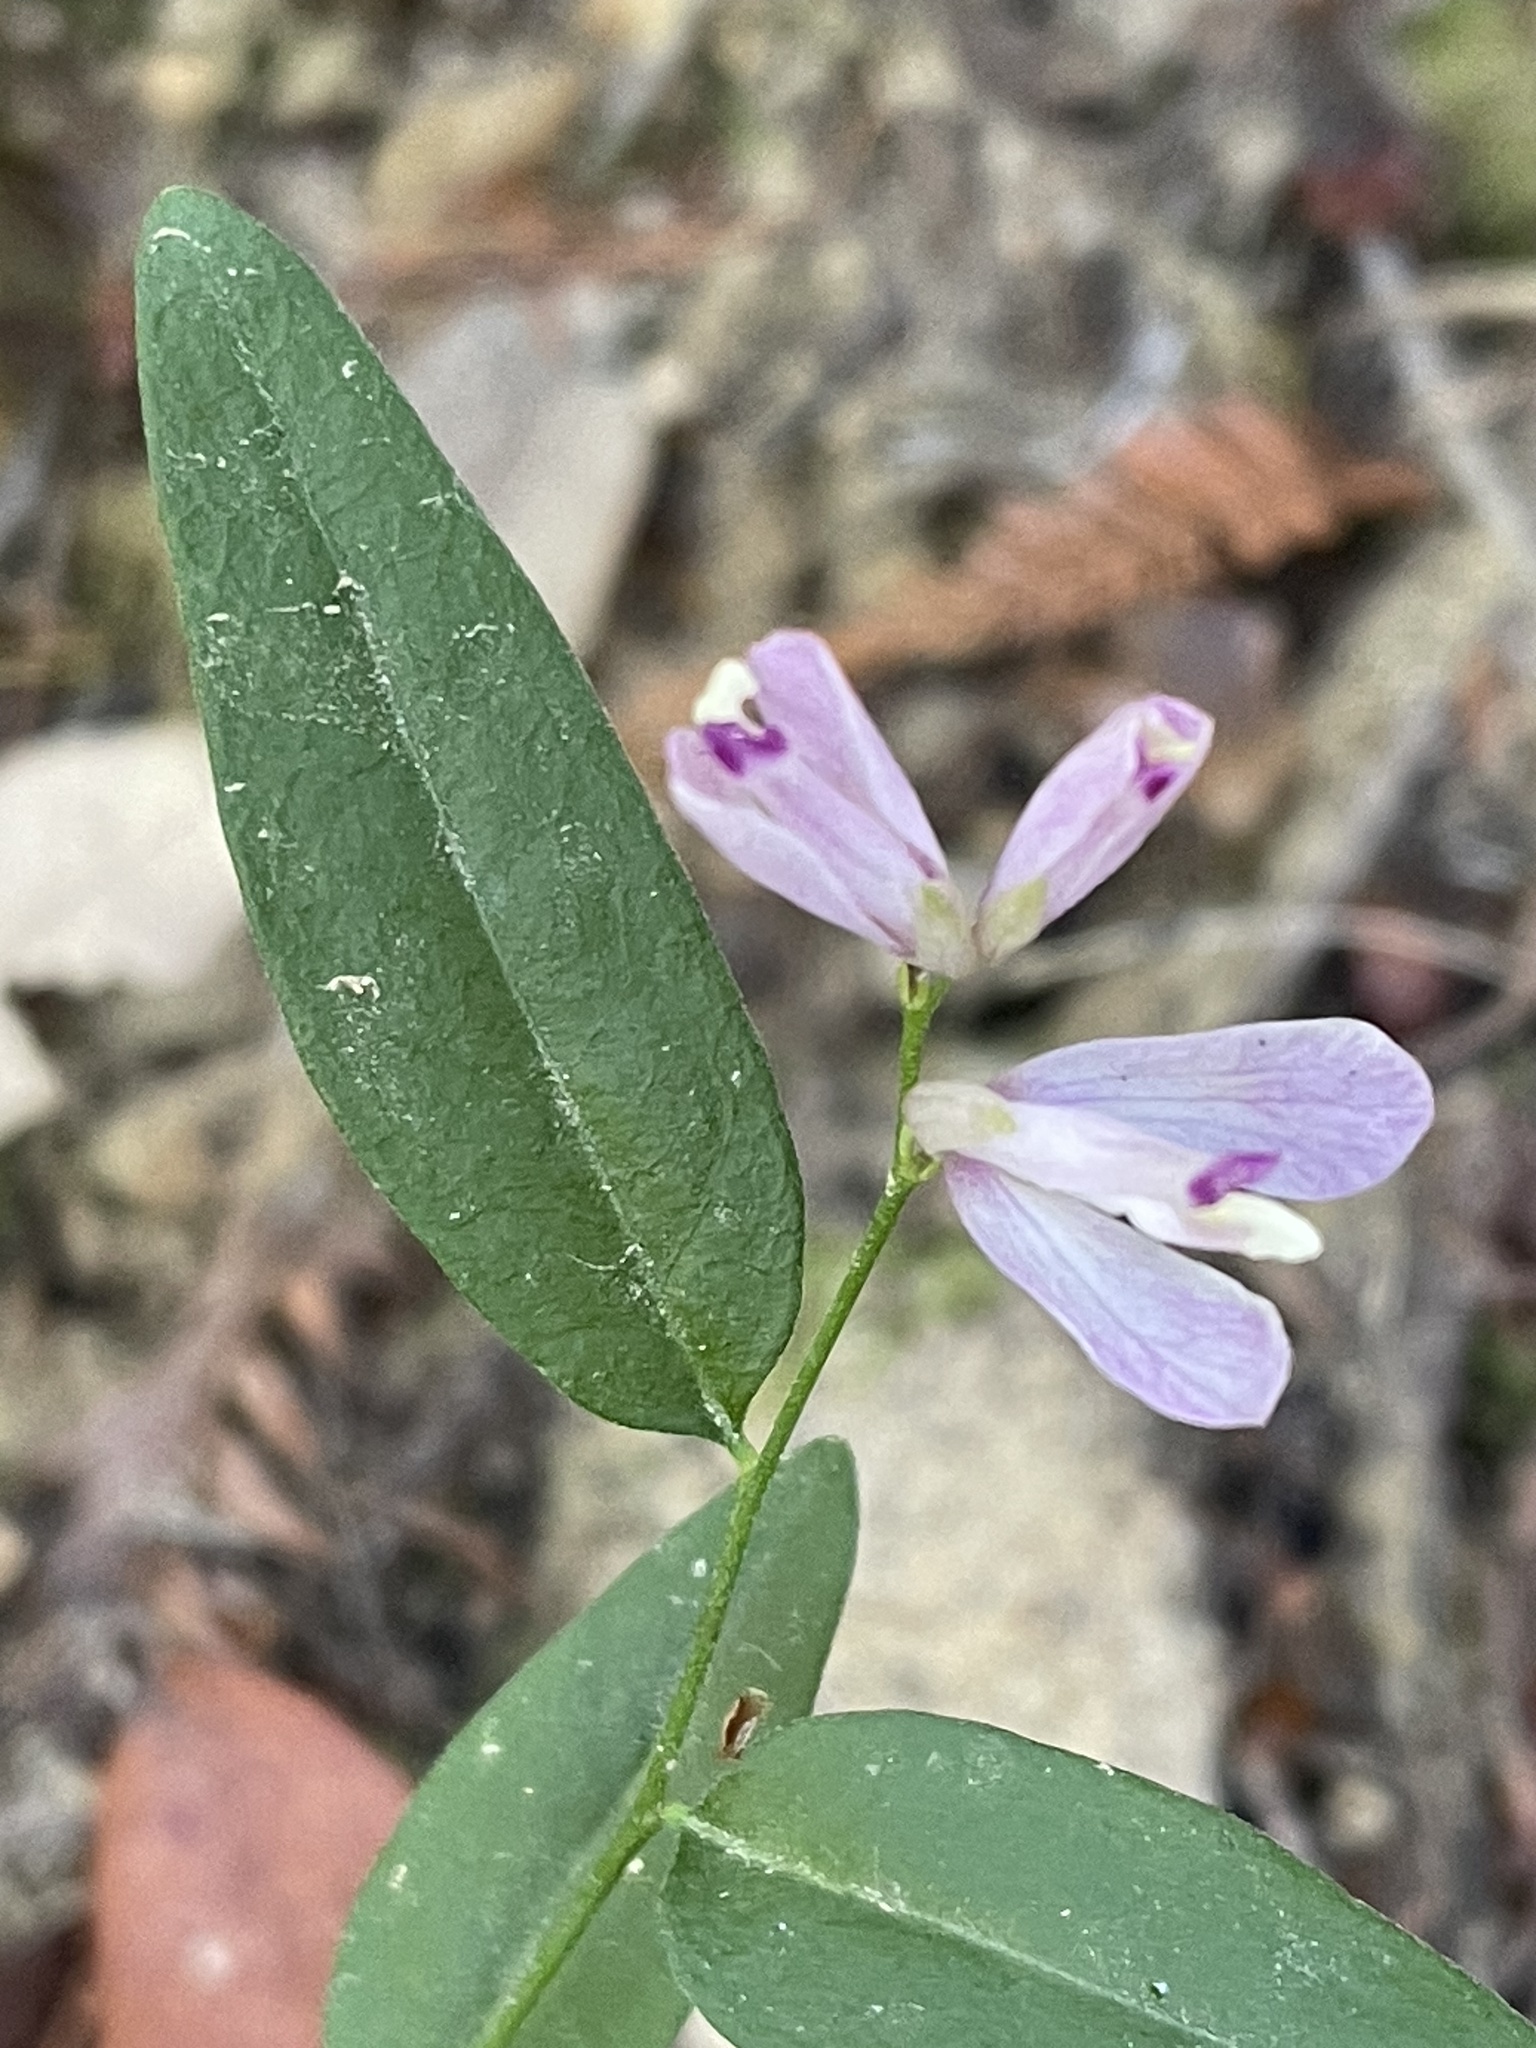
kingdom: Plantae
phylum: Tracheophyta
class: Magnoliopsida
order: Fabales
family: Polygalaceae
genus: Rhinotropis
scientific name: Rhinotropis californica
